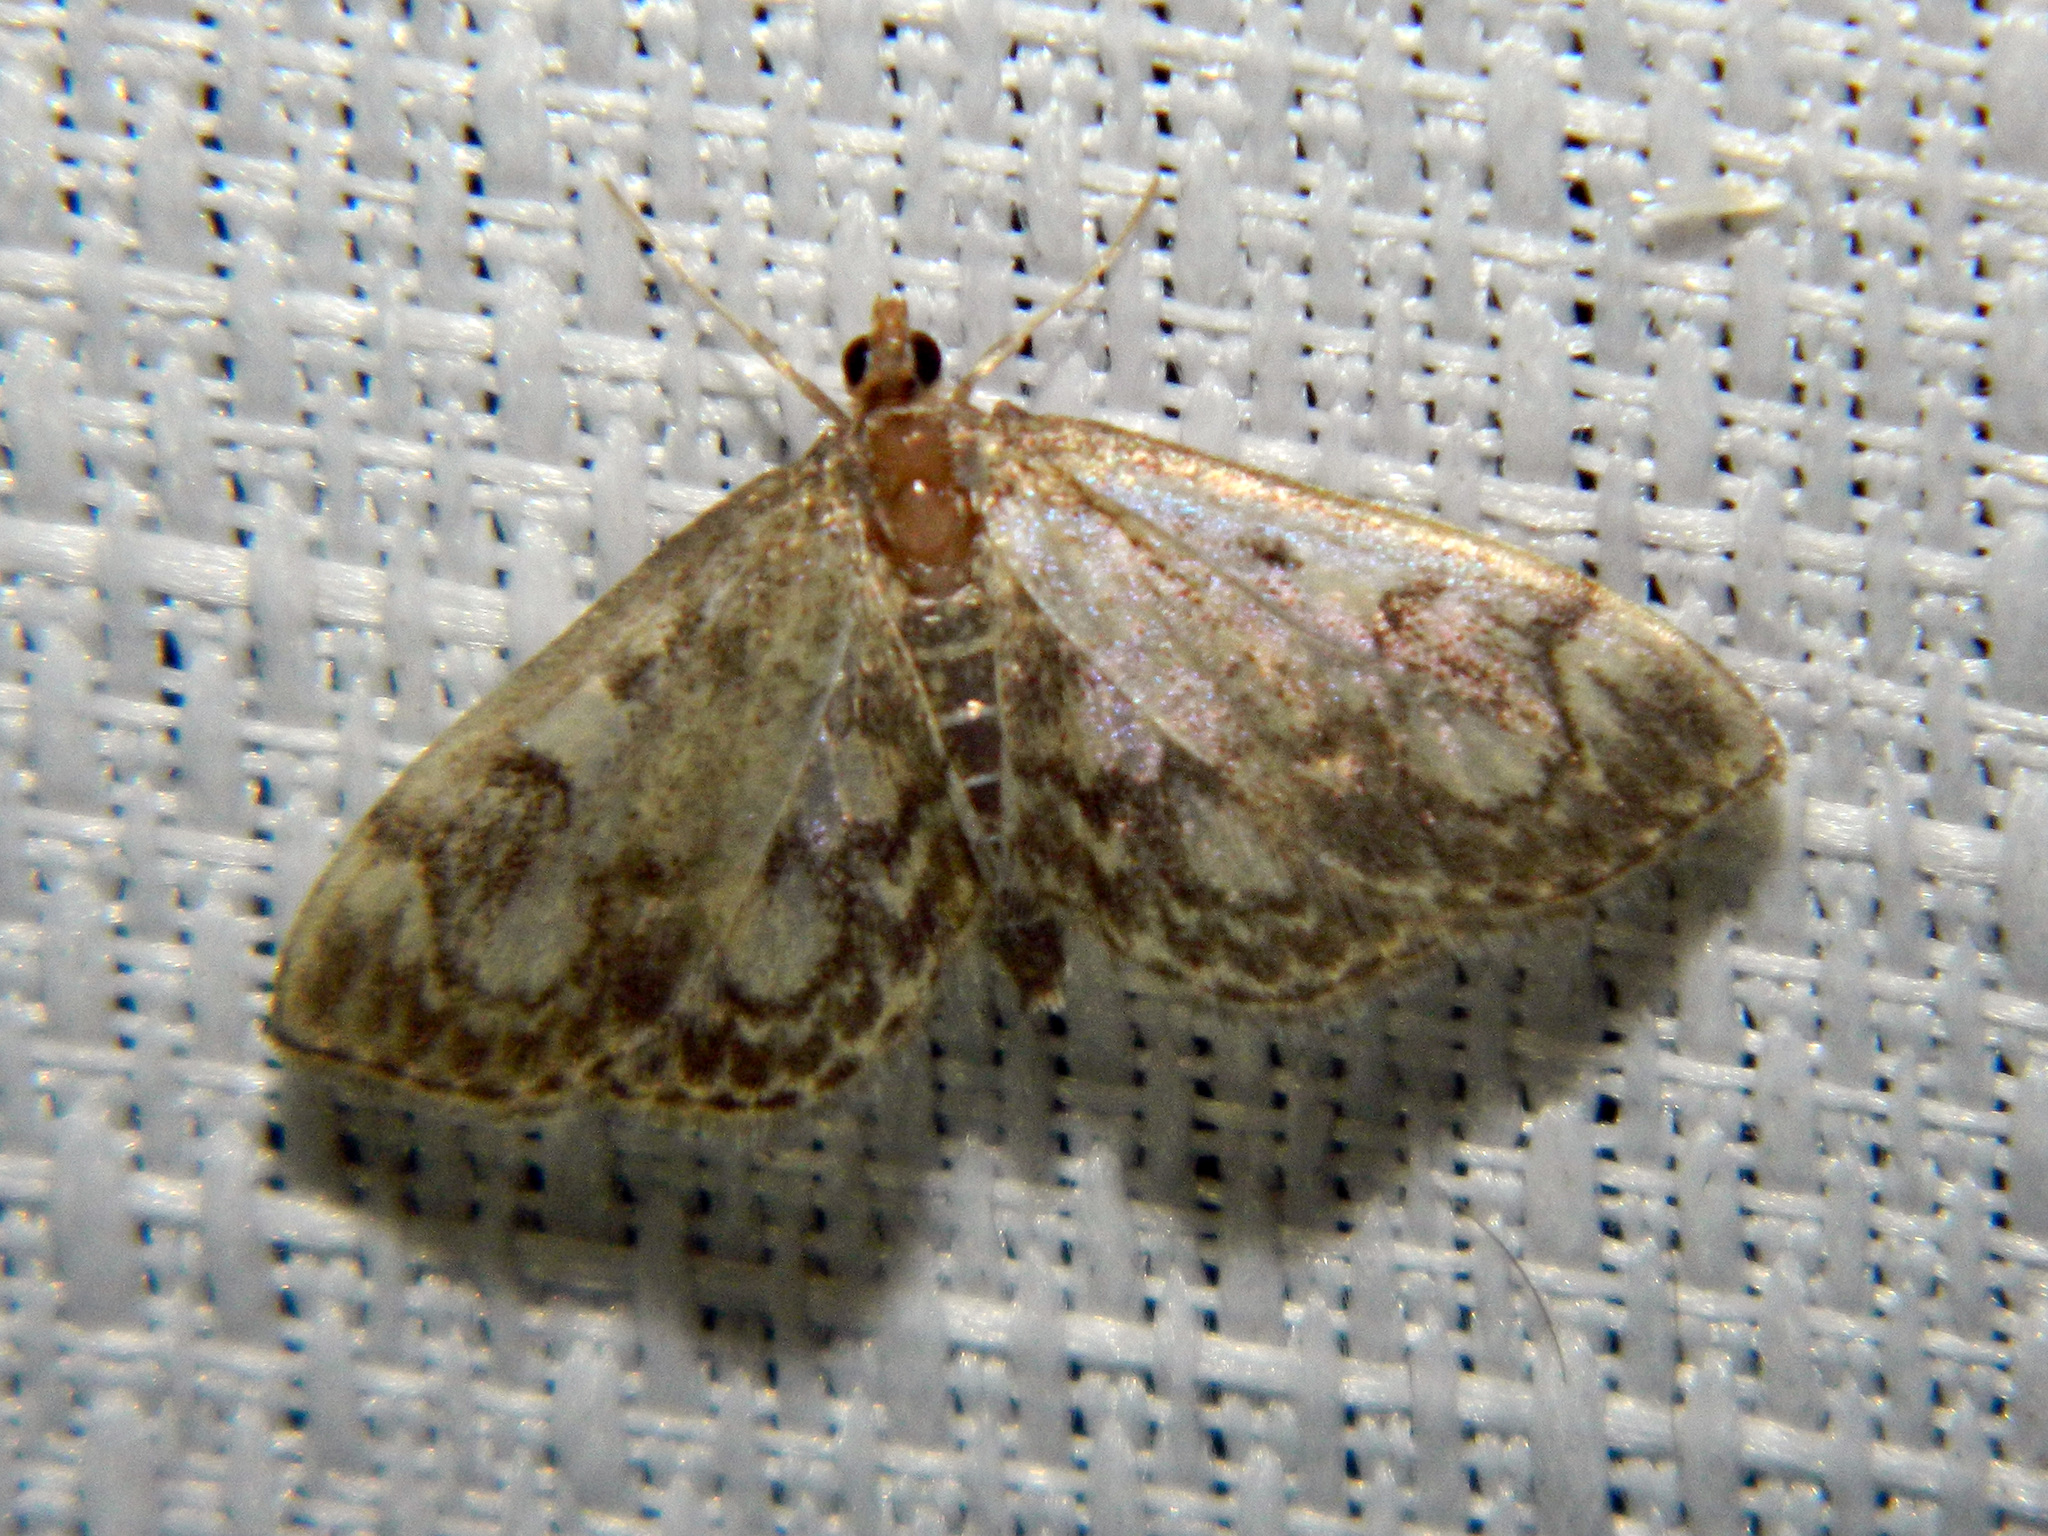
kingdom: Animalia
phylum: Arthropoda
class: Insecta
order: Lepidoptera
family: Crambidae
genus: Anania
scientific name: Anania
